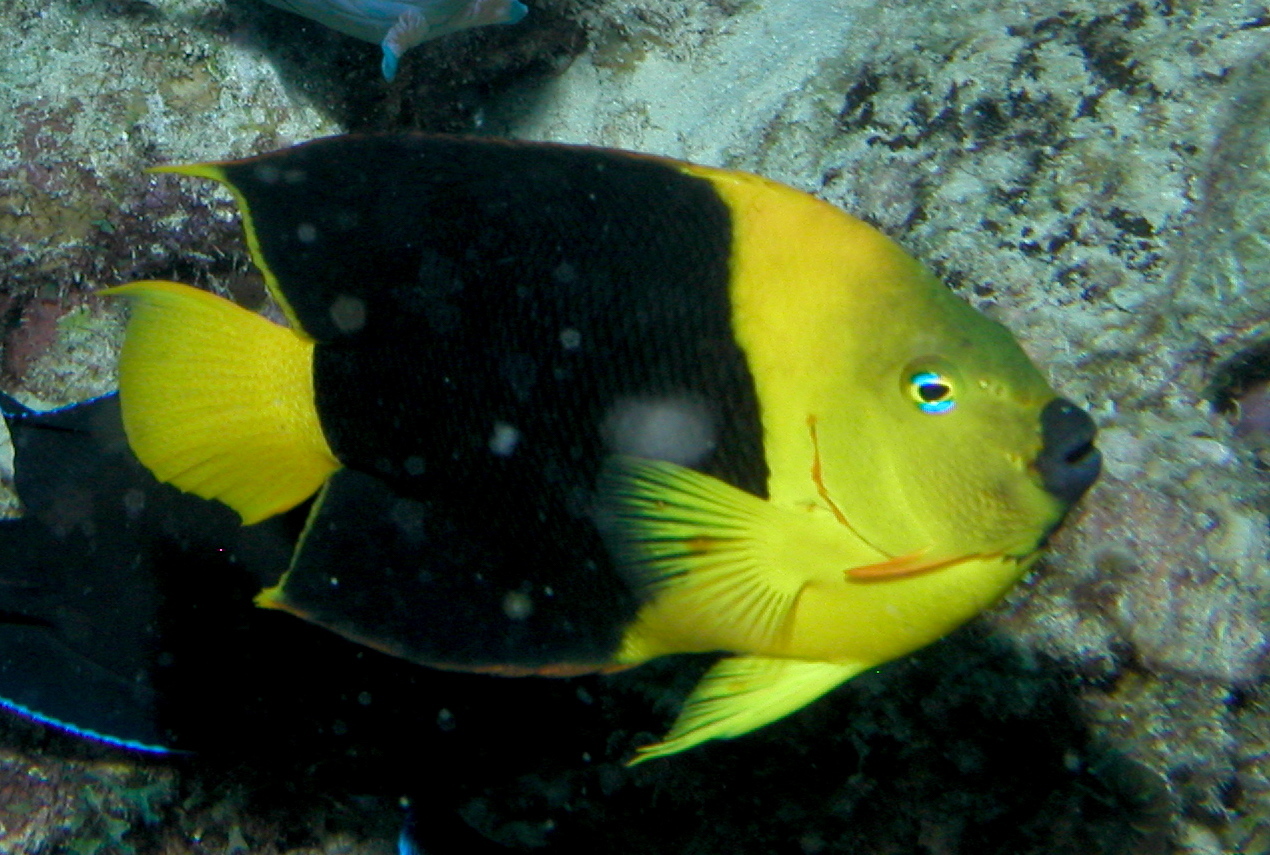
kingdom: Animalia
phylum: Chordata
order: Perciformes
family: Pomacanthidae
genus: Holacanthus
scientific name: Holacanthus tricolor
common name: Rock beauty
